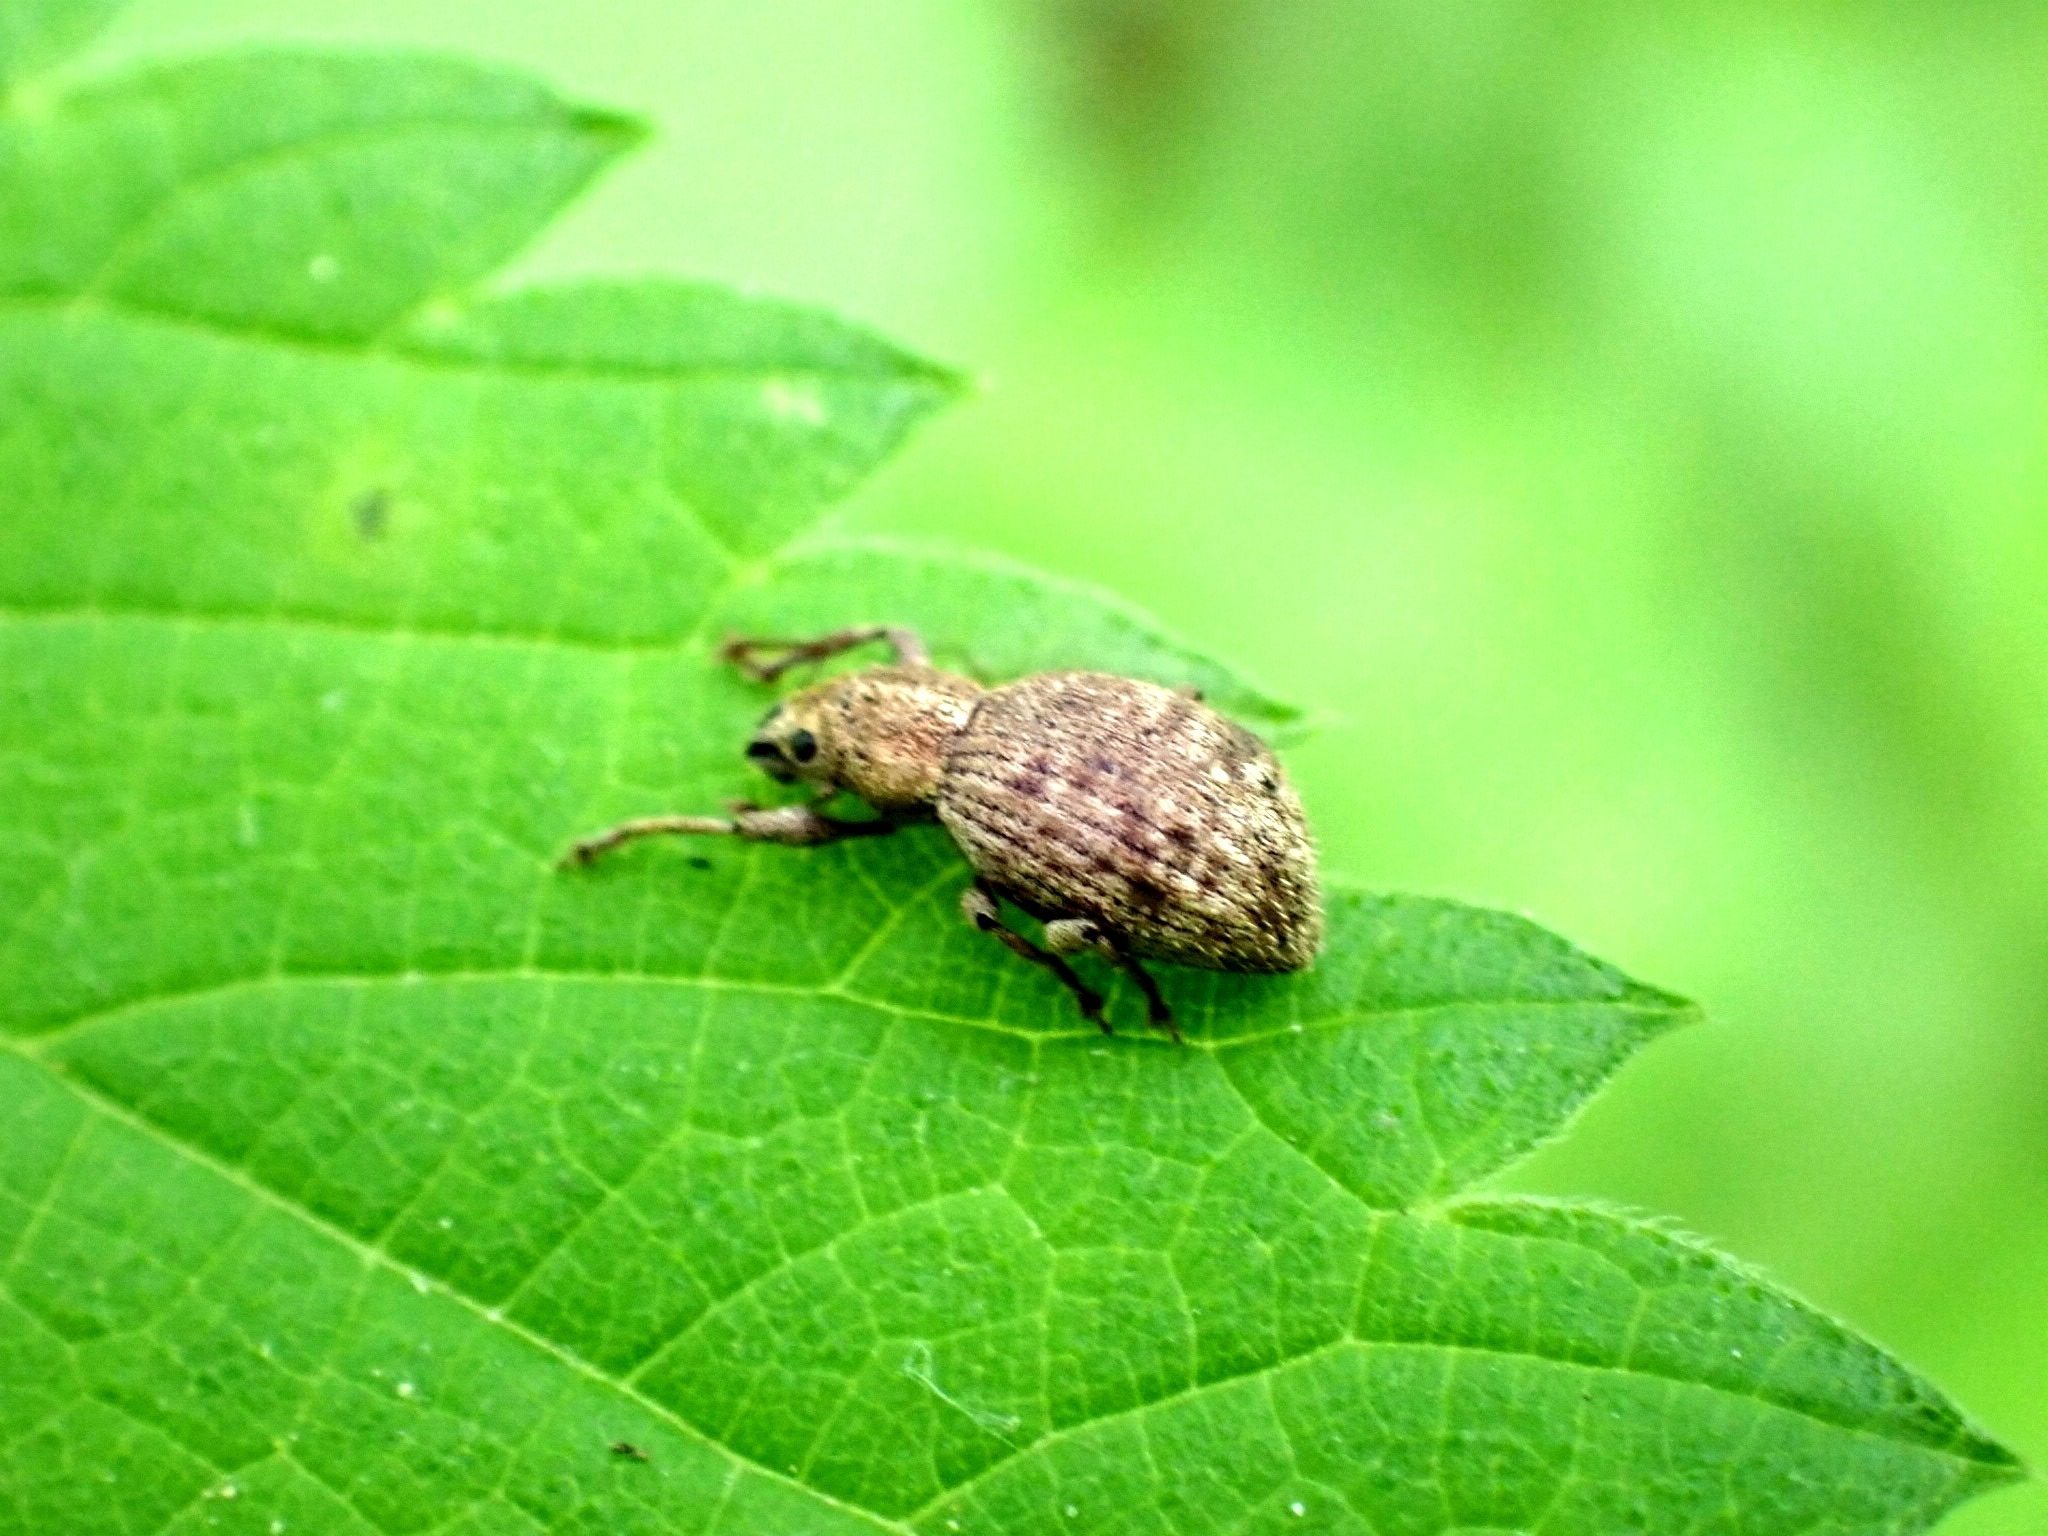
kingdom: Animalia
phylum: Arthropoda
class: Insecta
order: Coleoptera
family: Curculionidae
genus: Sciaphilus
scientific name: Sciaphilus asperatus
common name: Weevil
